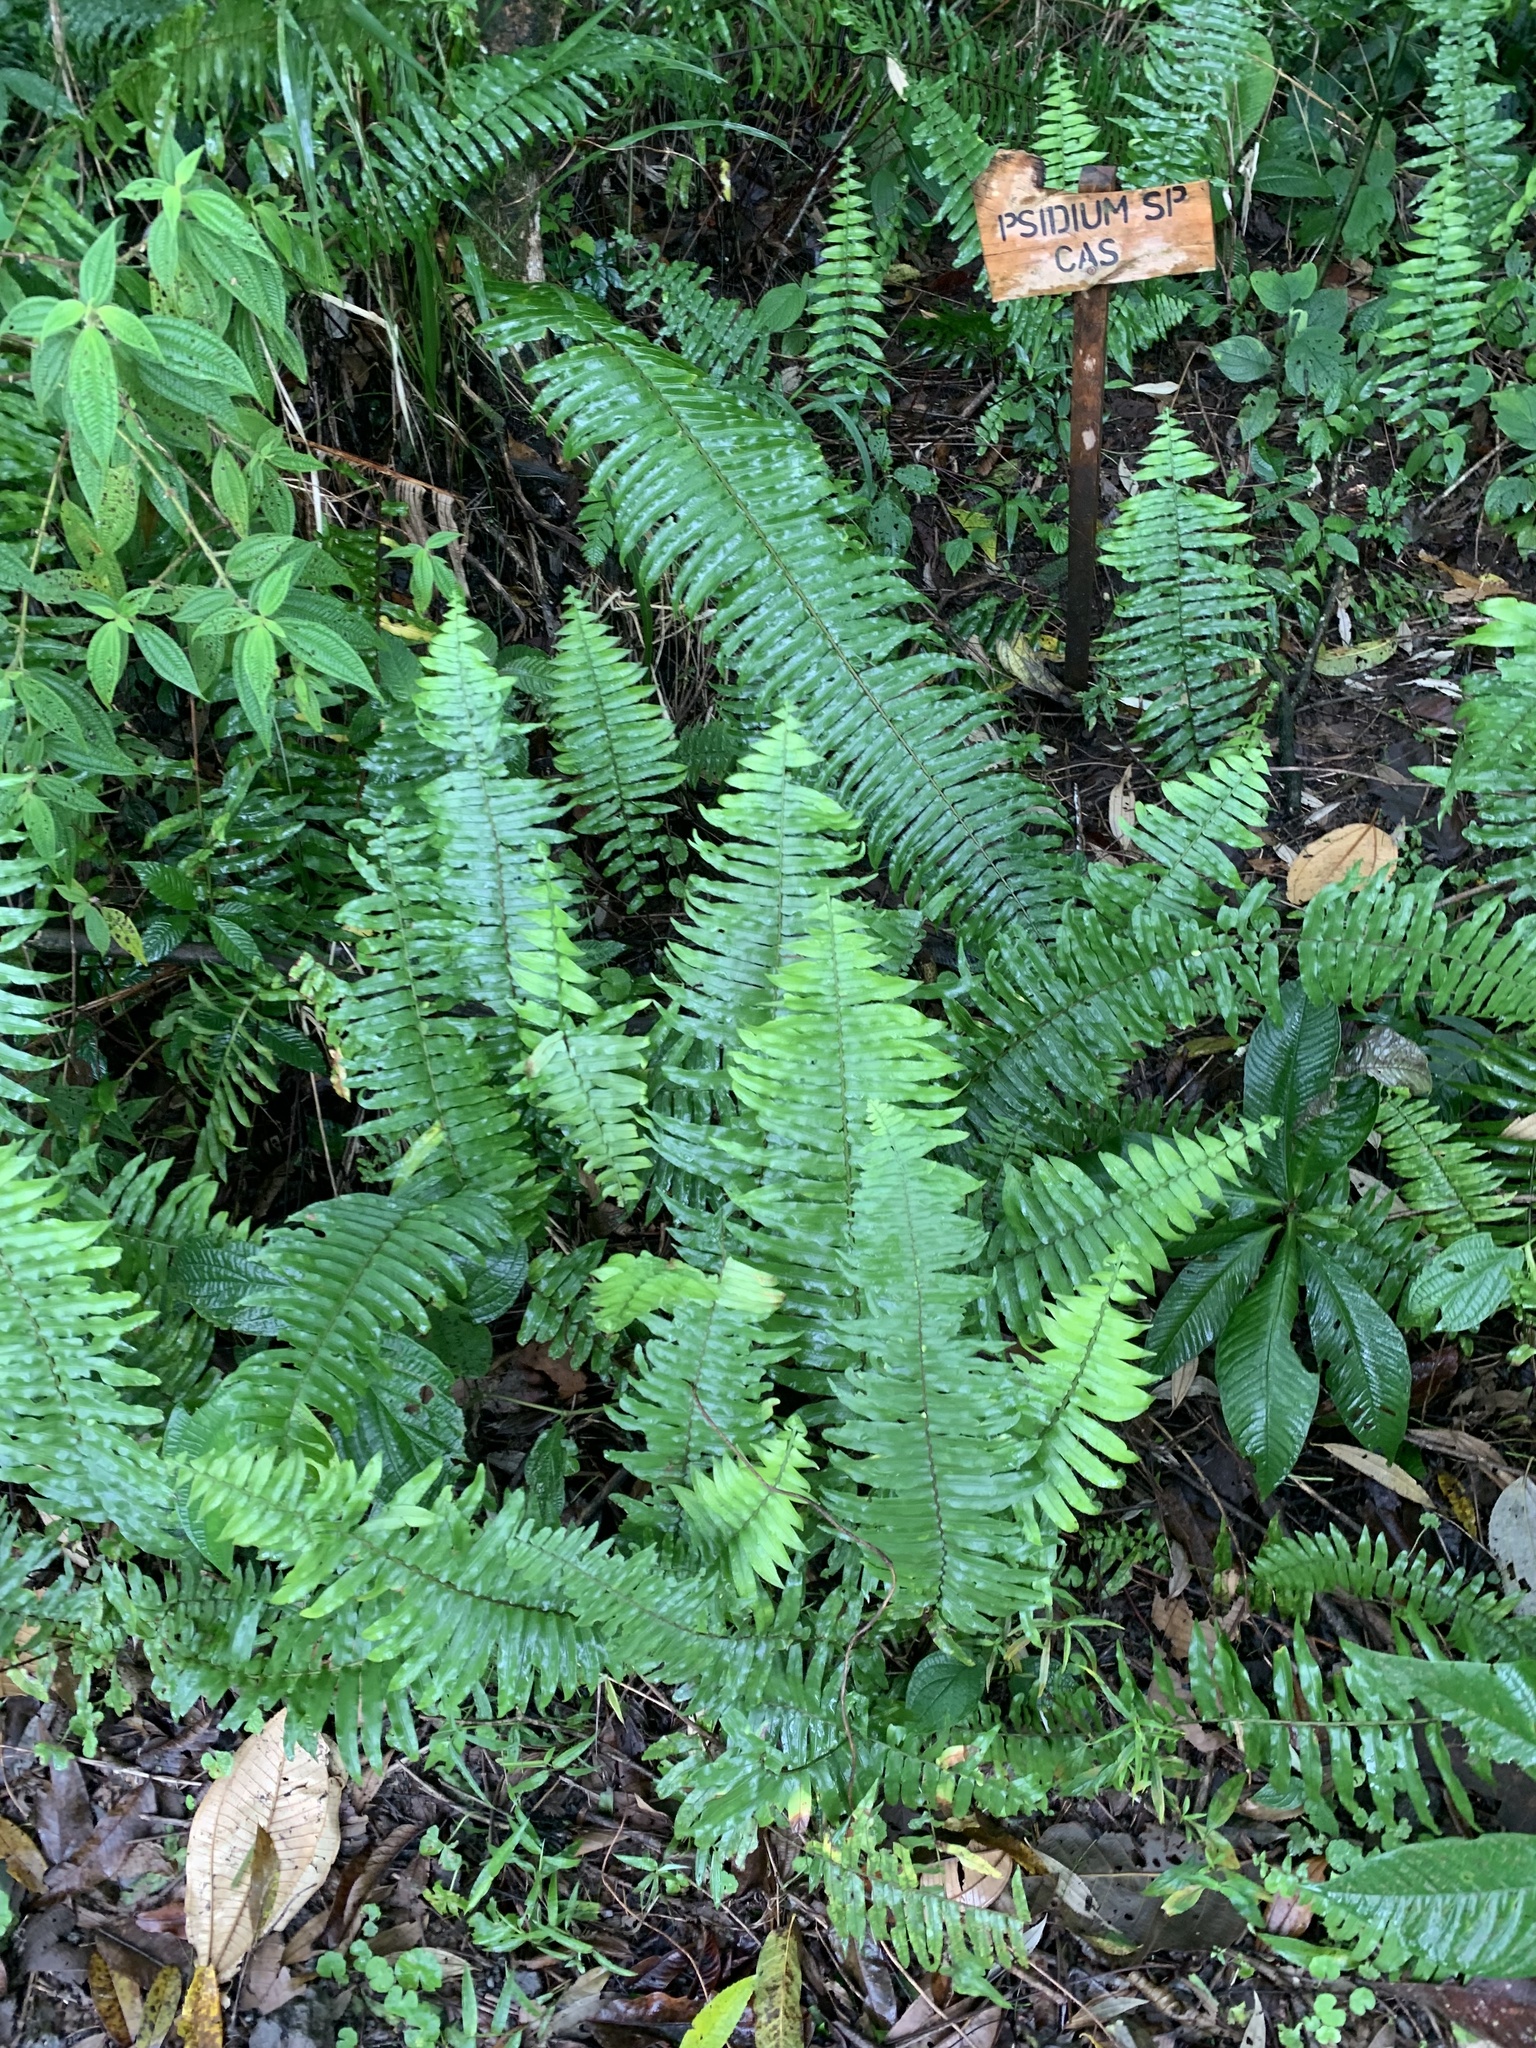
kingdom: Plantae
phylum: Tracheophyta
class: Polypodiopsida
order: Polypodiales
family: Nephrolepidaceae
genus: Nephrolepis
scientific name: Nephrolepis cordifolia
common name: Narrow swordfern
